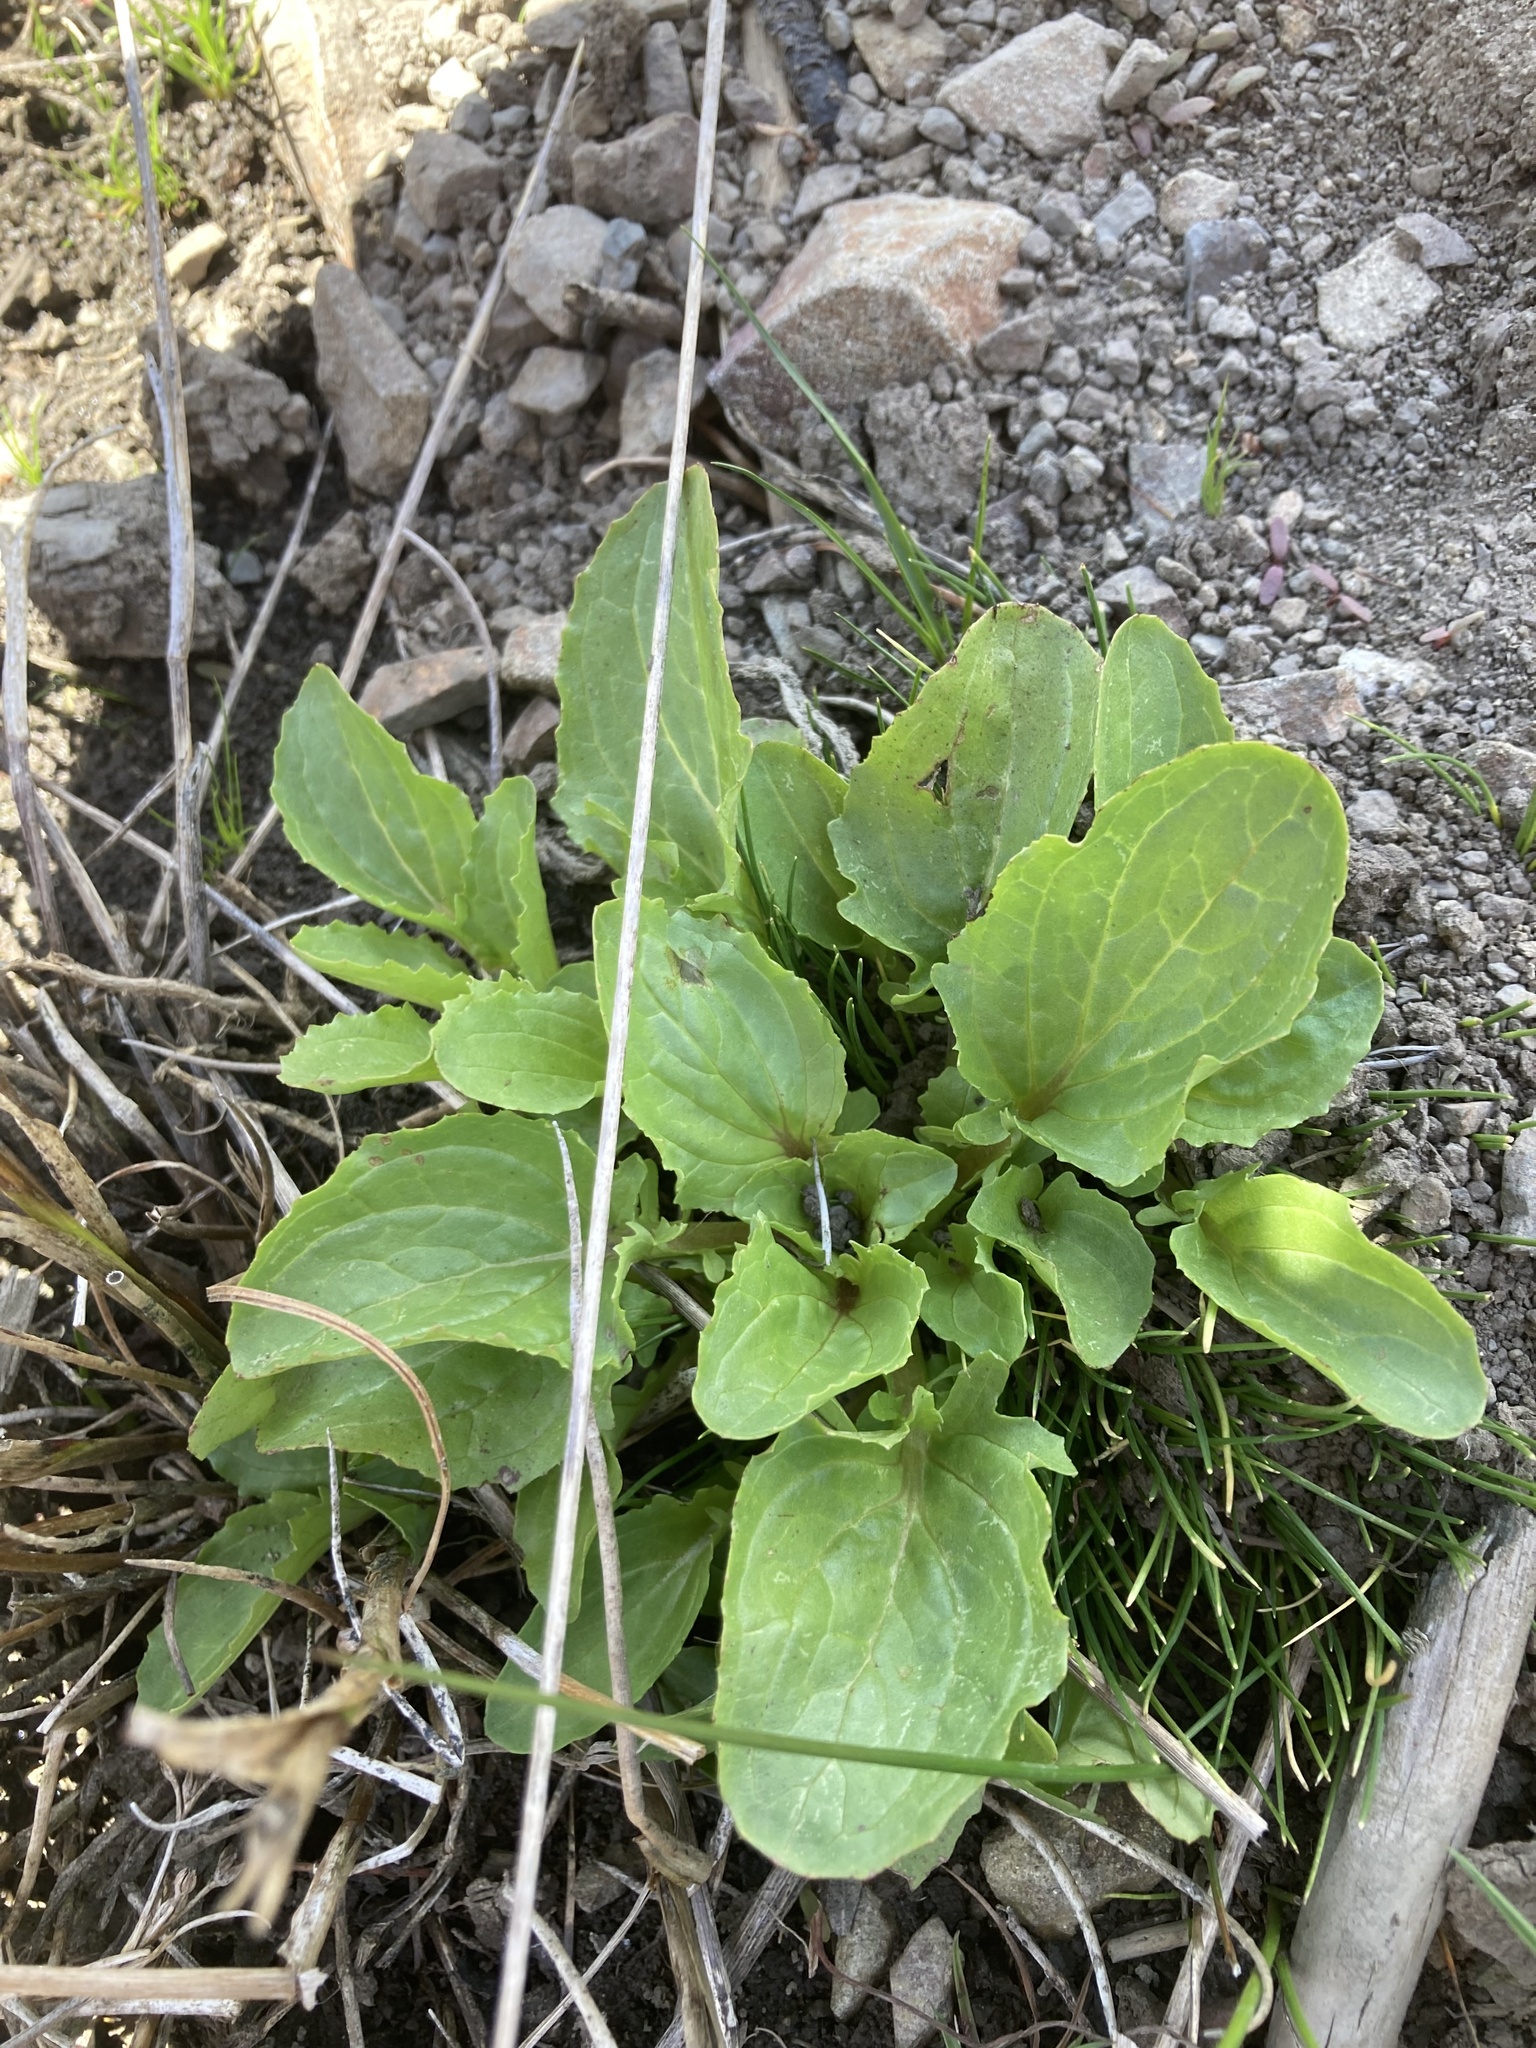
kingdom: Plantae
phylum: Tracheophyta
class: Magnoliopsida
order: Lamiales
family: Phrymaceae
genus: Erythranthe
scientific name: Erythranthe guttata
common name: Monkeyflower
